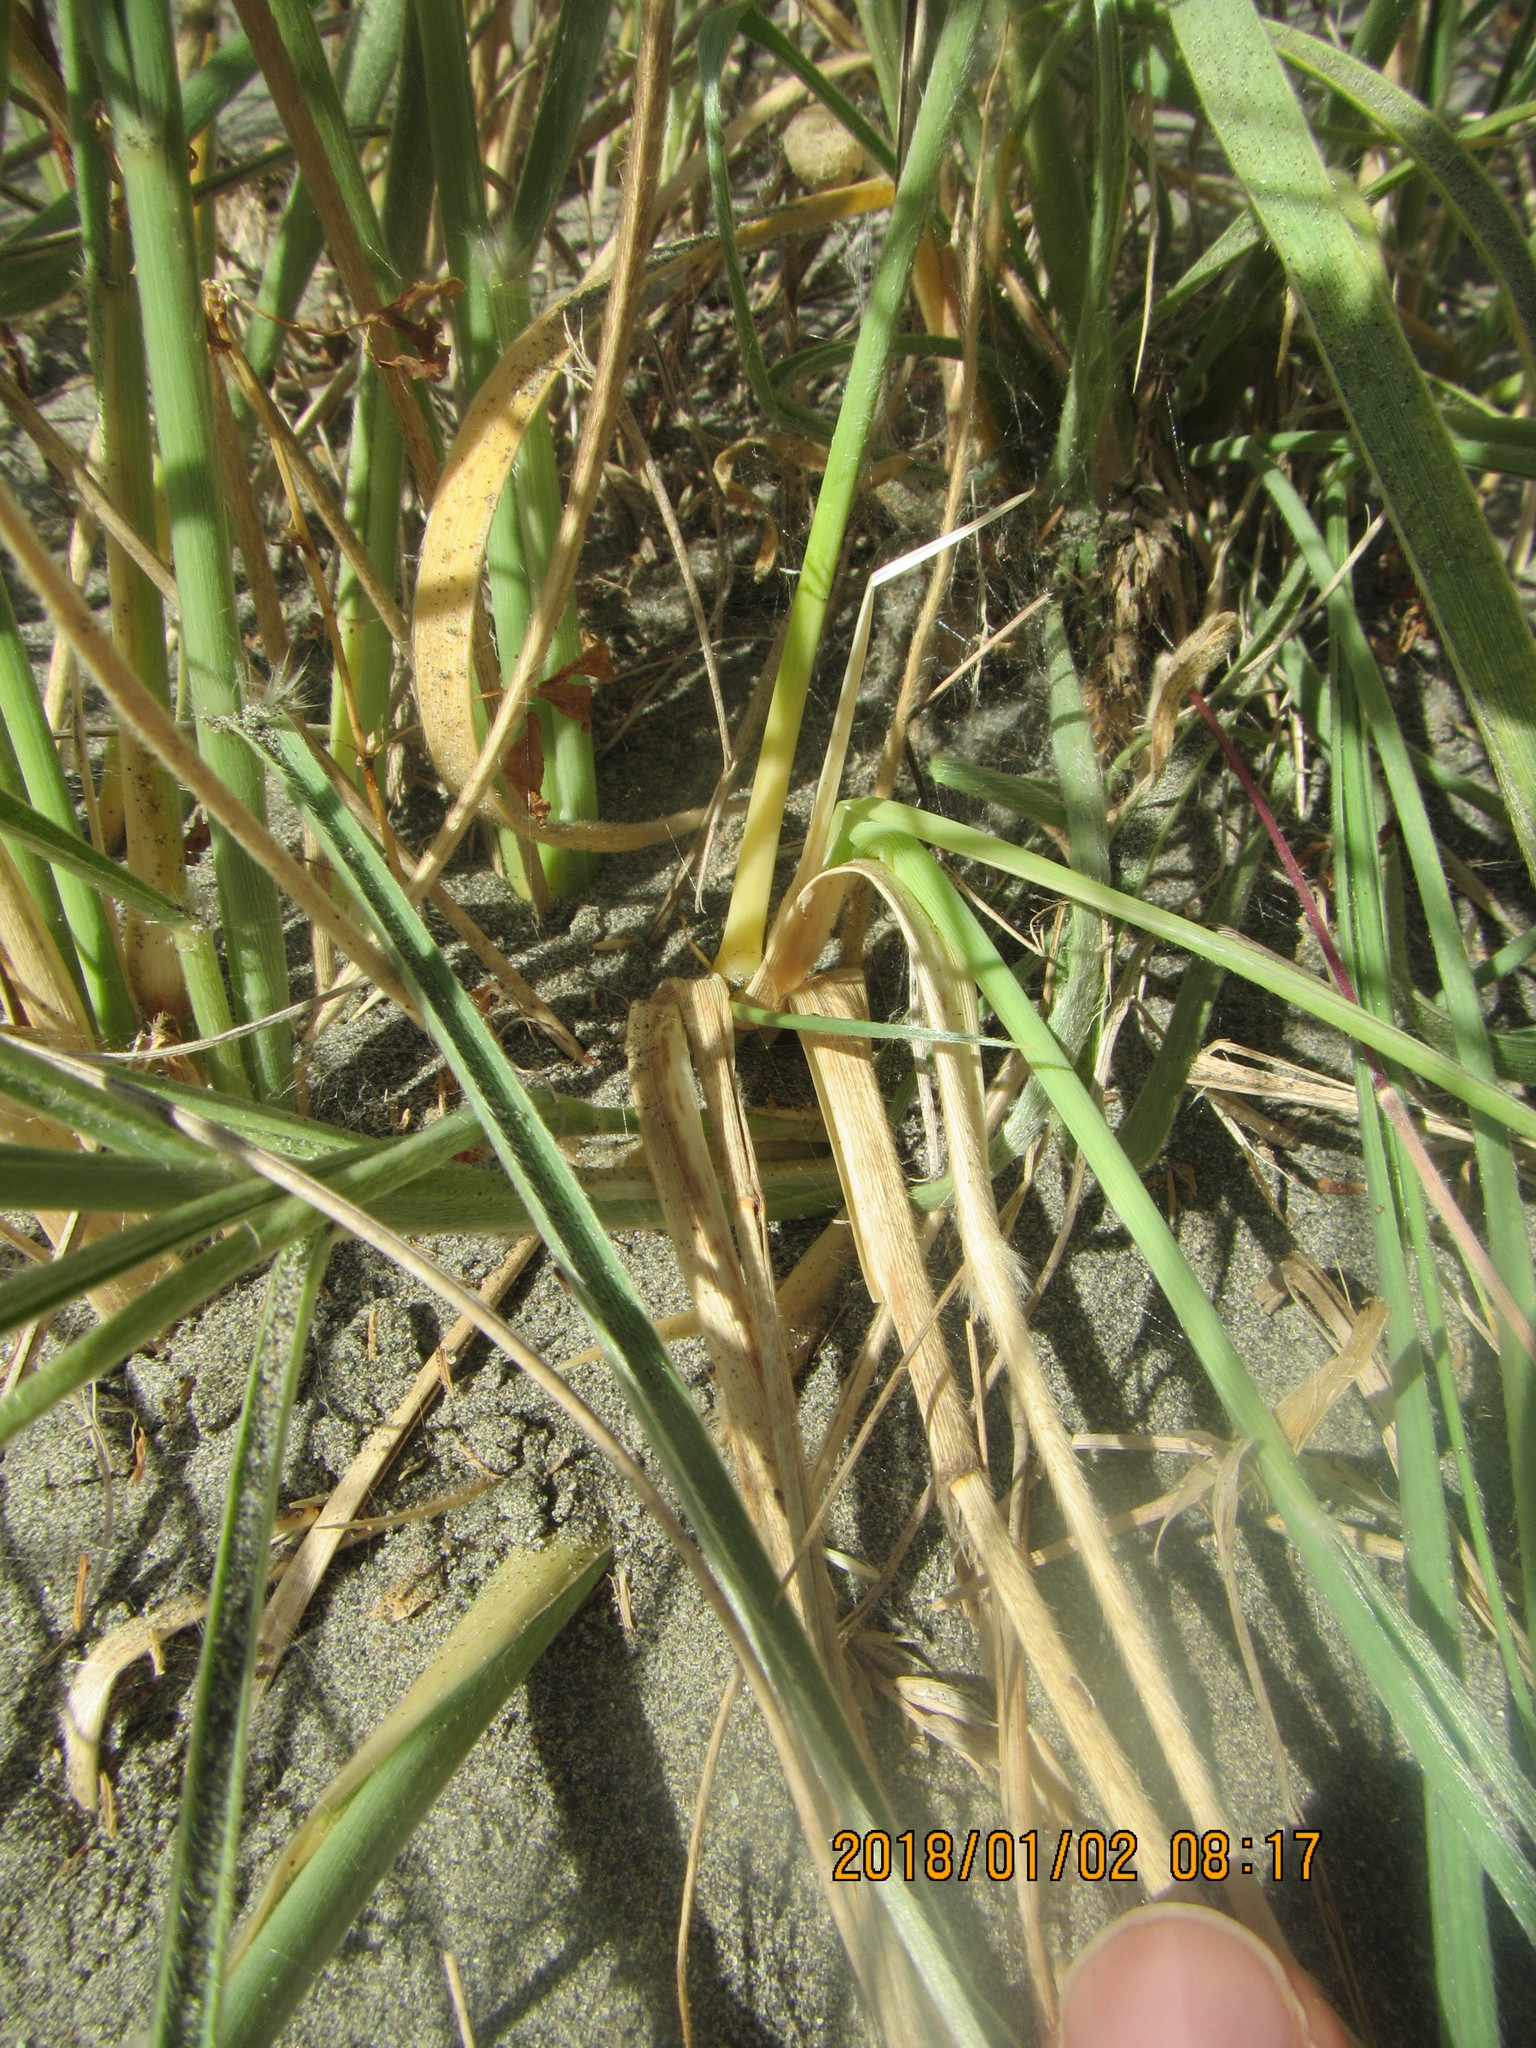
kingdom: Animalia
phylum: Arthropoda
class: Arachnida
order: Araneae
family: Theridiidae
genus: Latrodectus
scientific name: Latrodectus katipo
